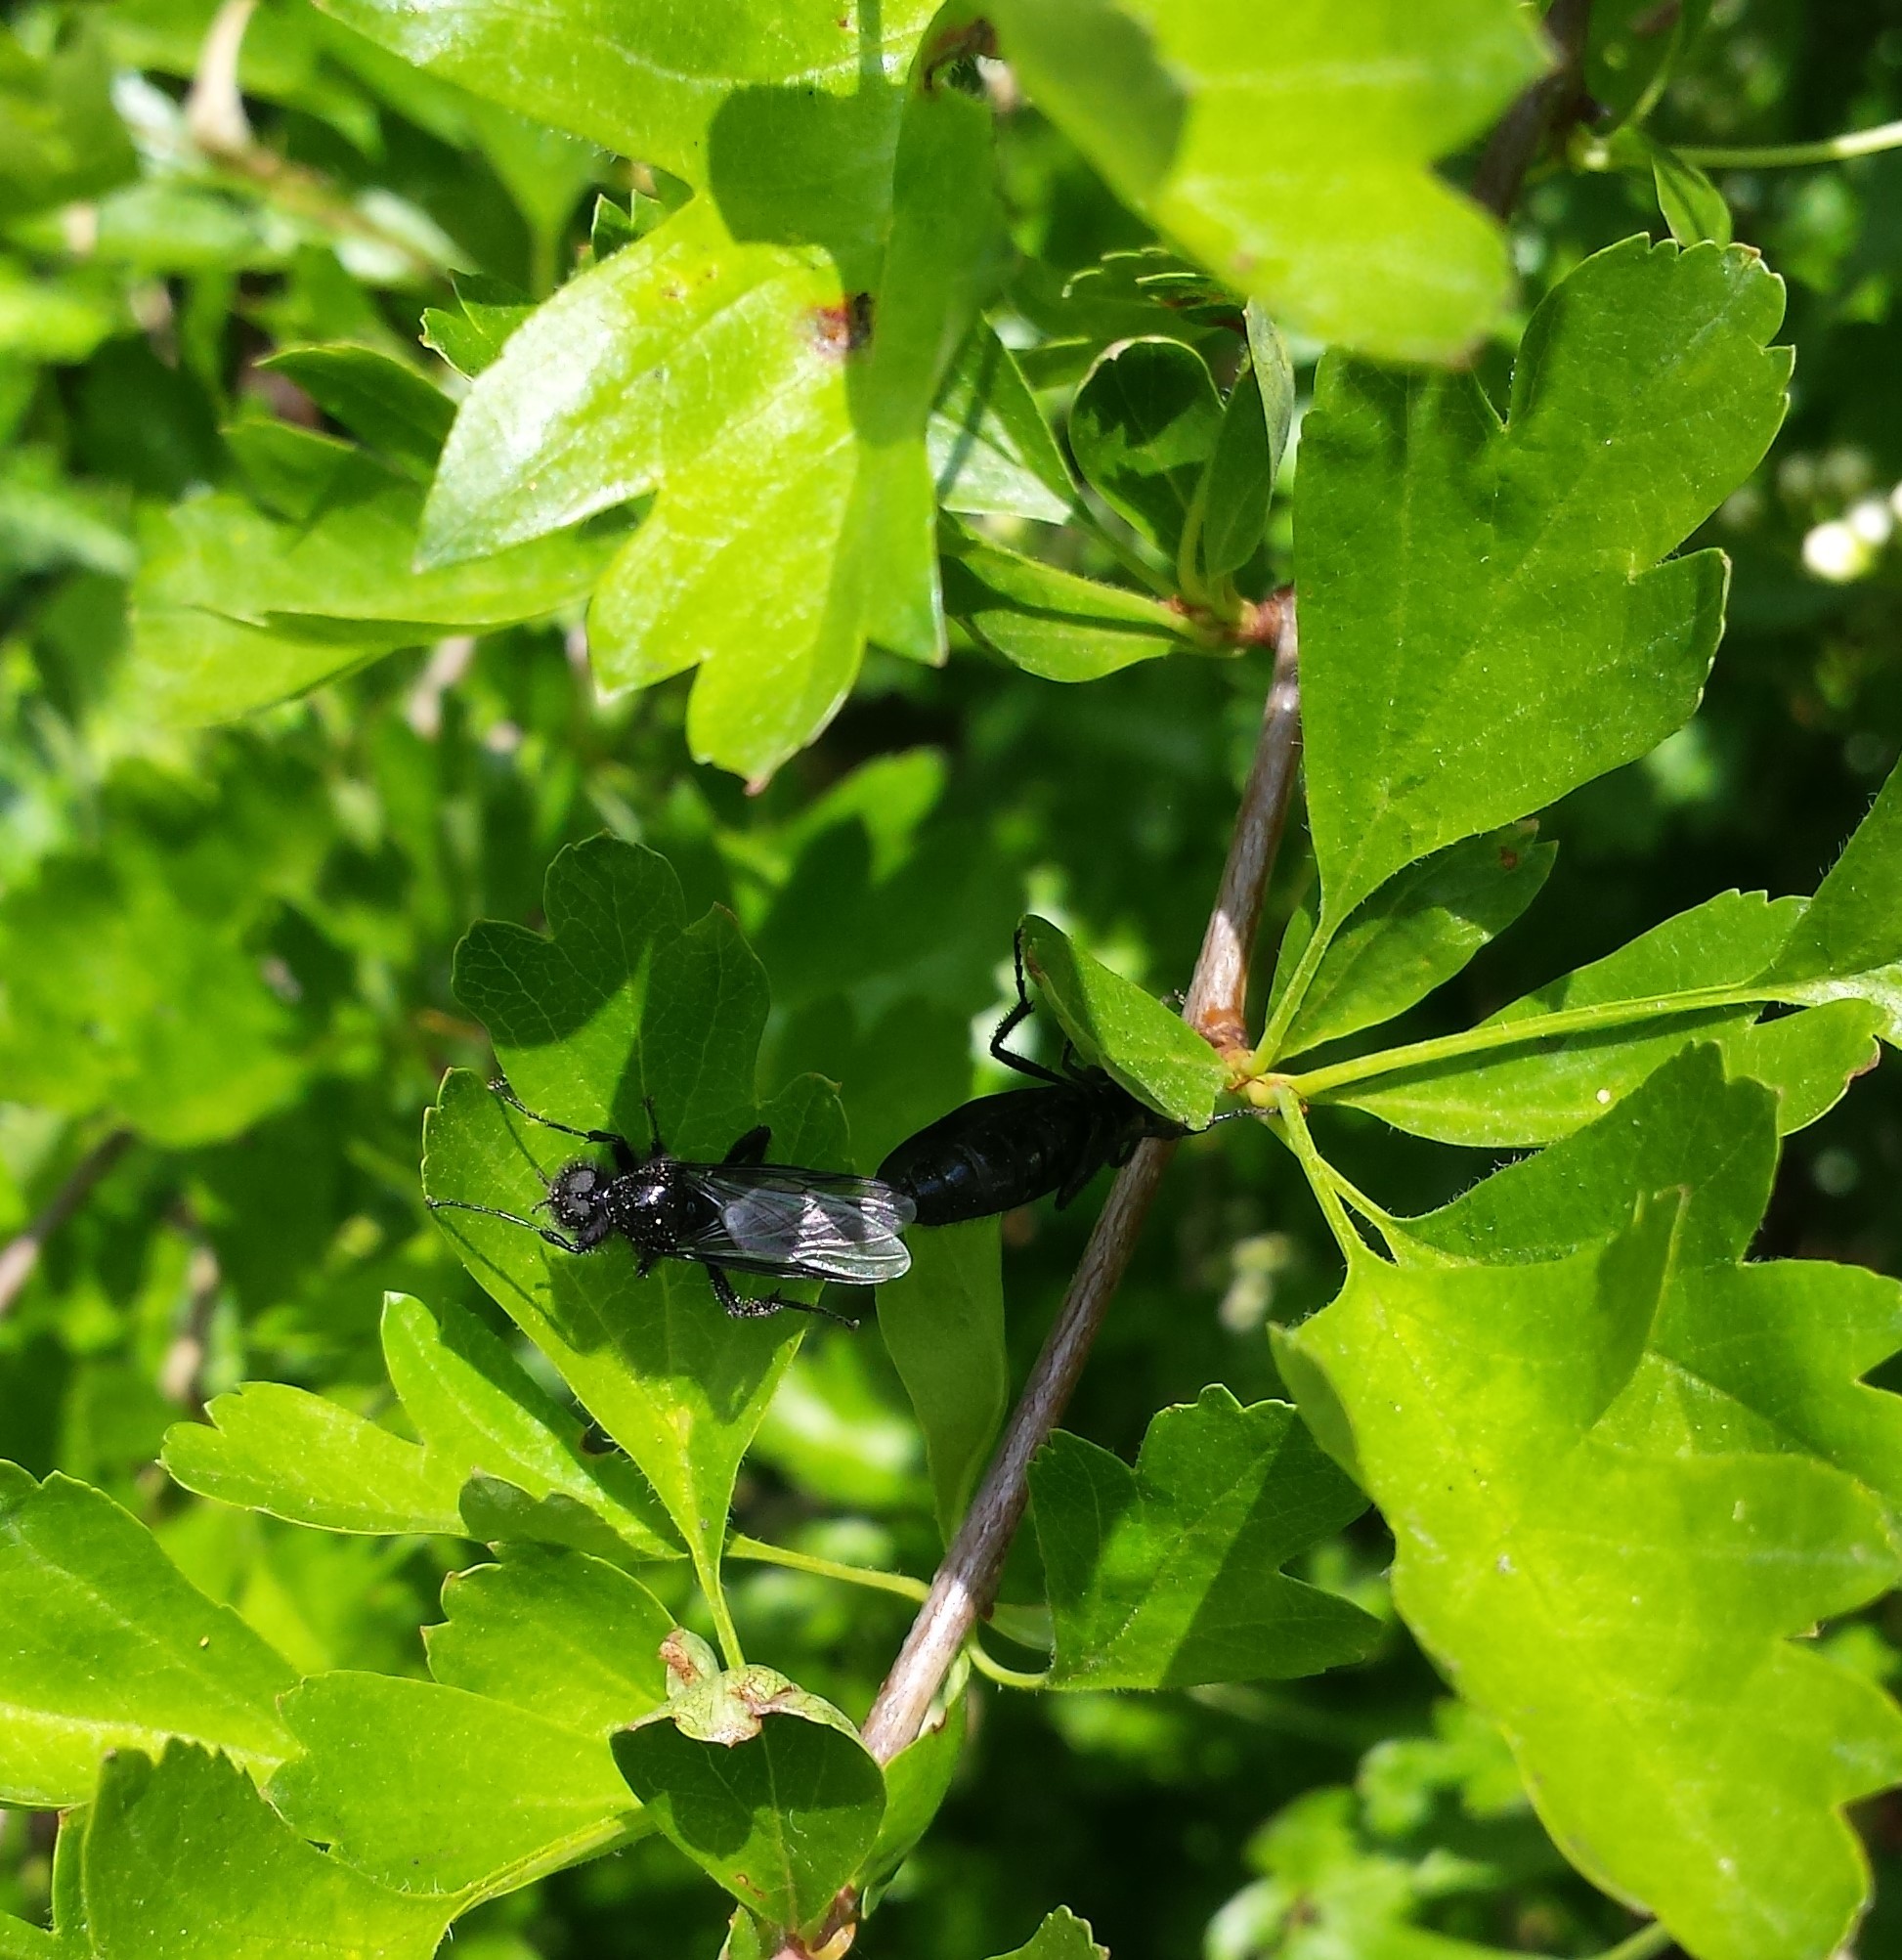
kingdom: Animalia
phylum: Arthropoda
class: Insecta
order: Diptera
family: Bibionidae
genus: Bibio
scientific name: Bibio marci
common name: St marks fly
